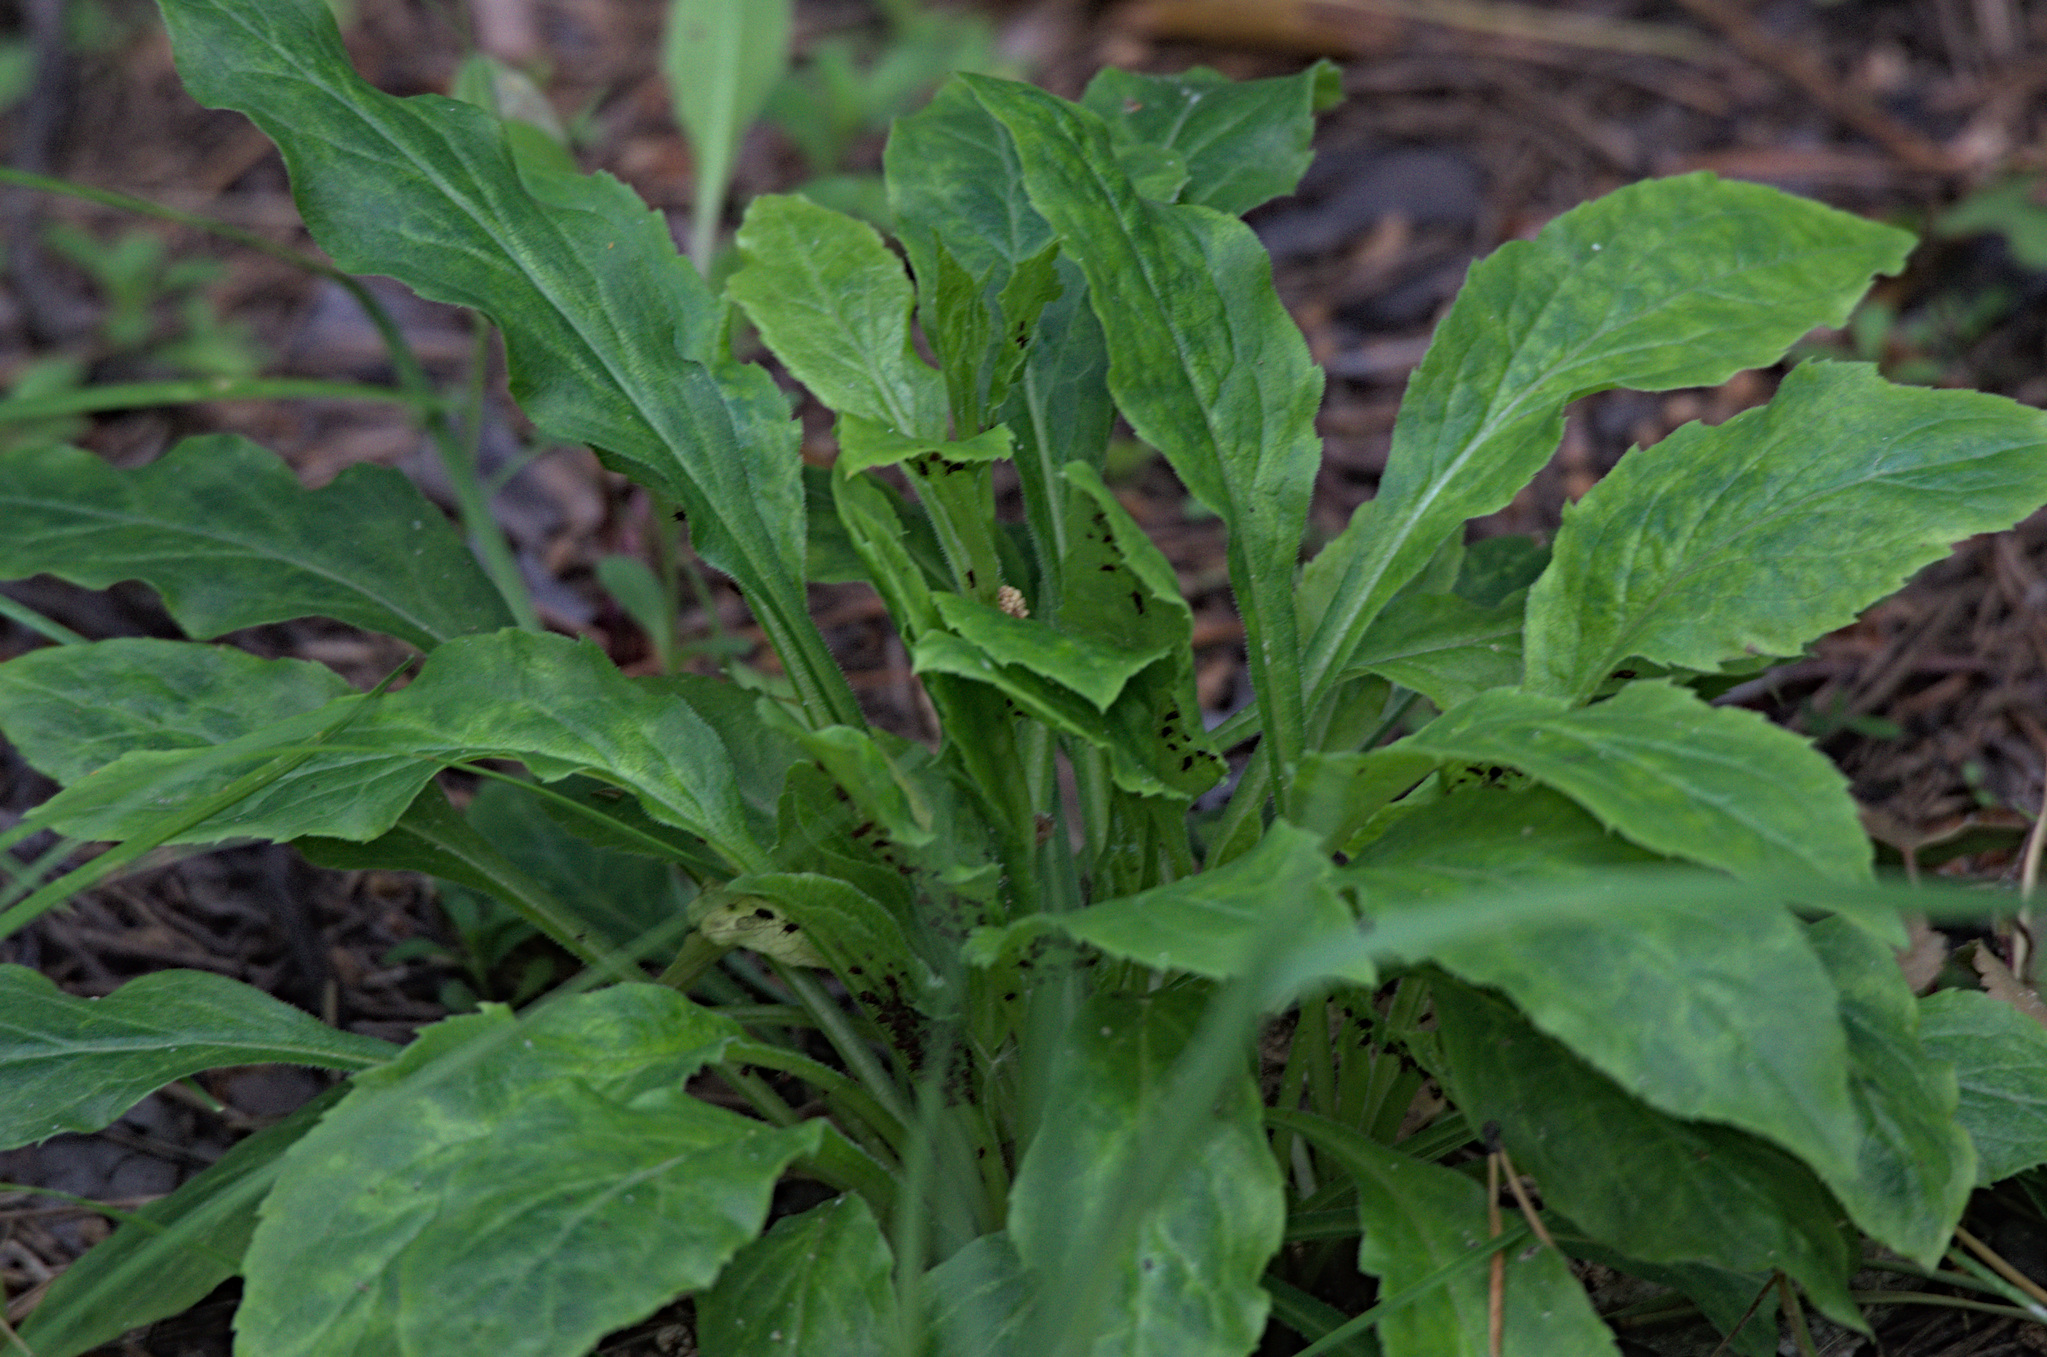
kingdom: Plantae
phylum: Tracheophyta
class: Magnoliopsida
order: Asterales
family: Asteraceae
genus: Solidago
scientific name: Solidago virgaurea
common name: Goldenrod
